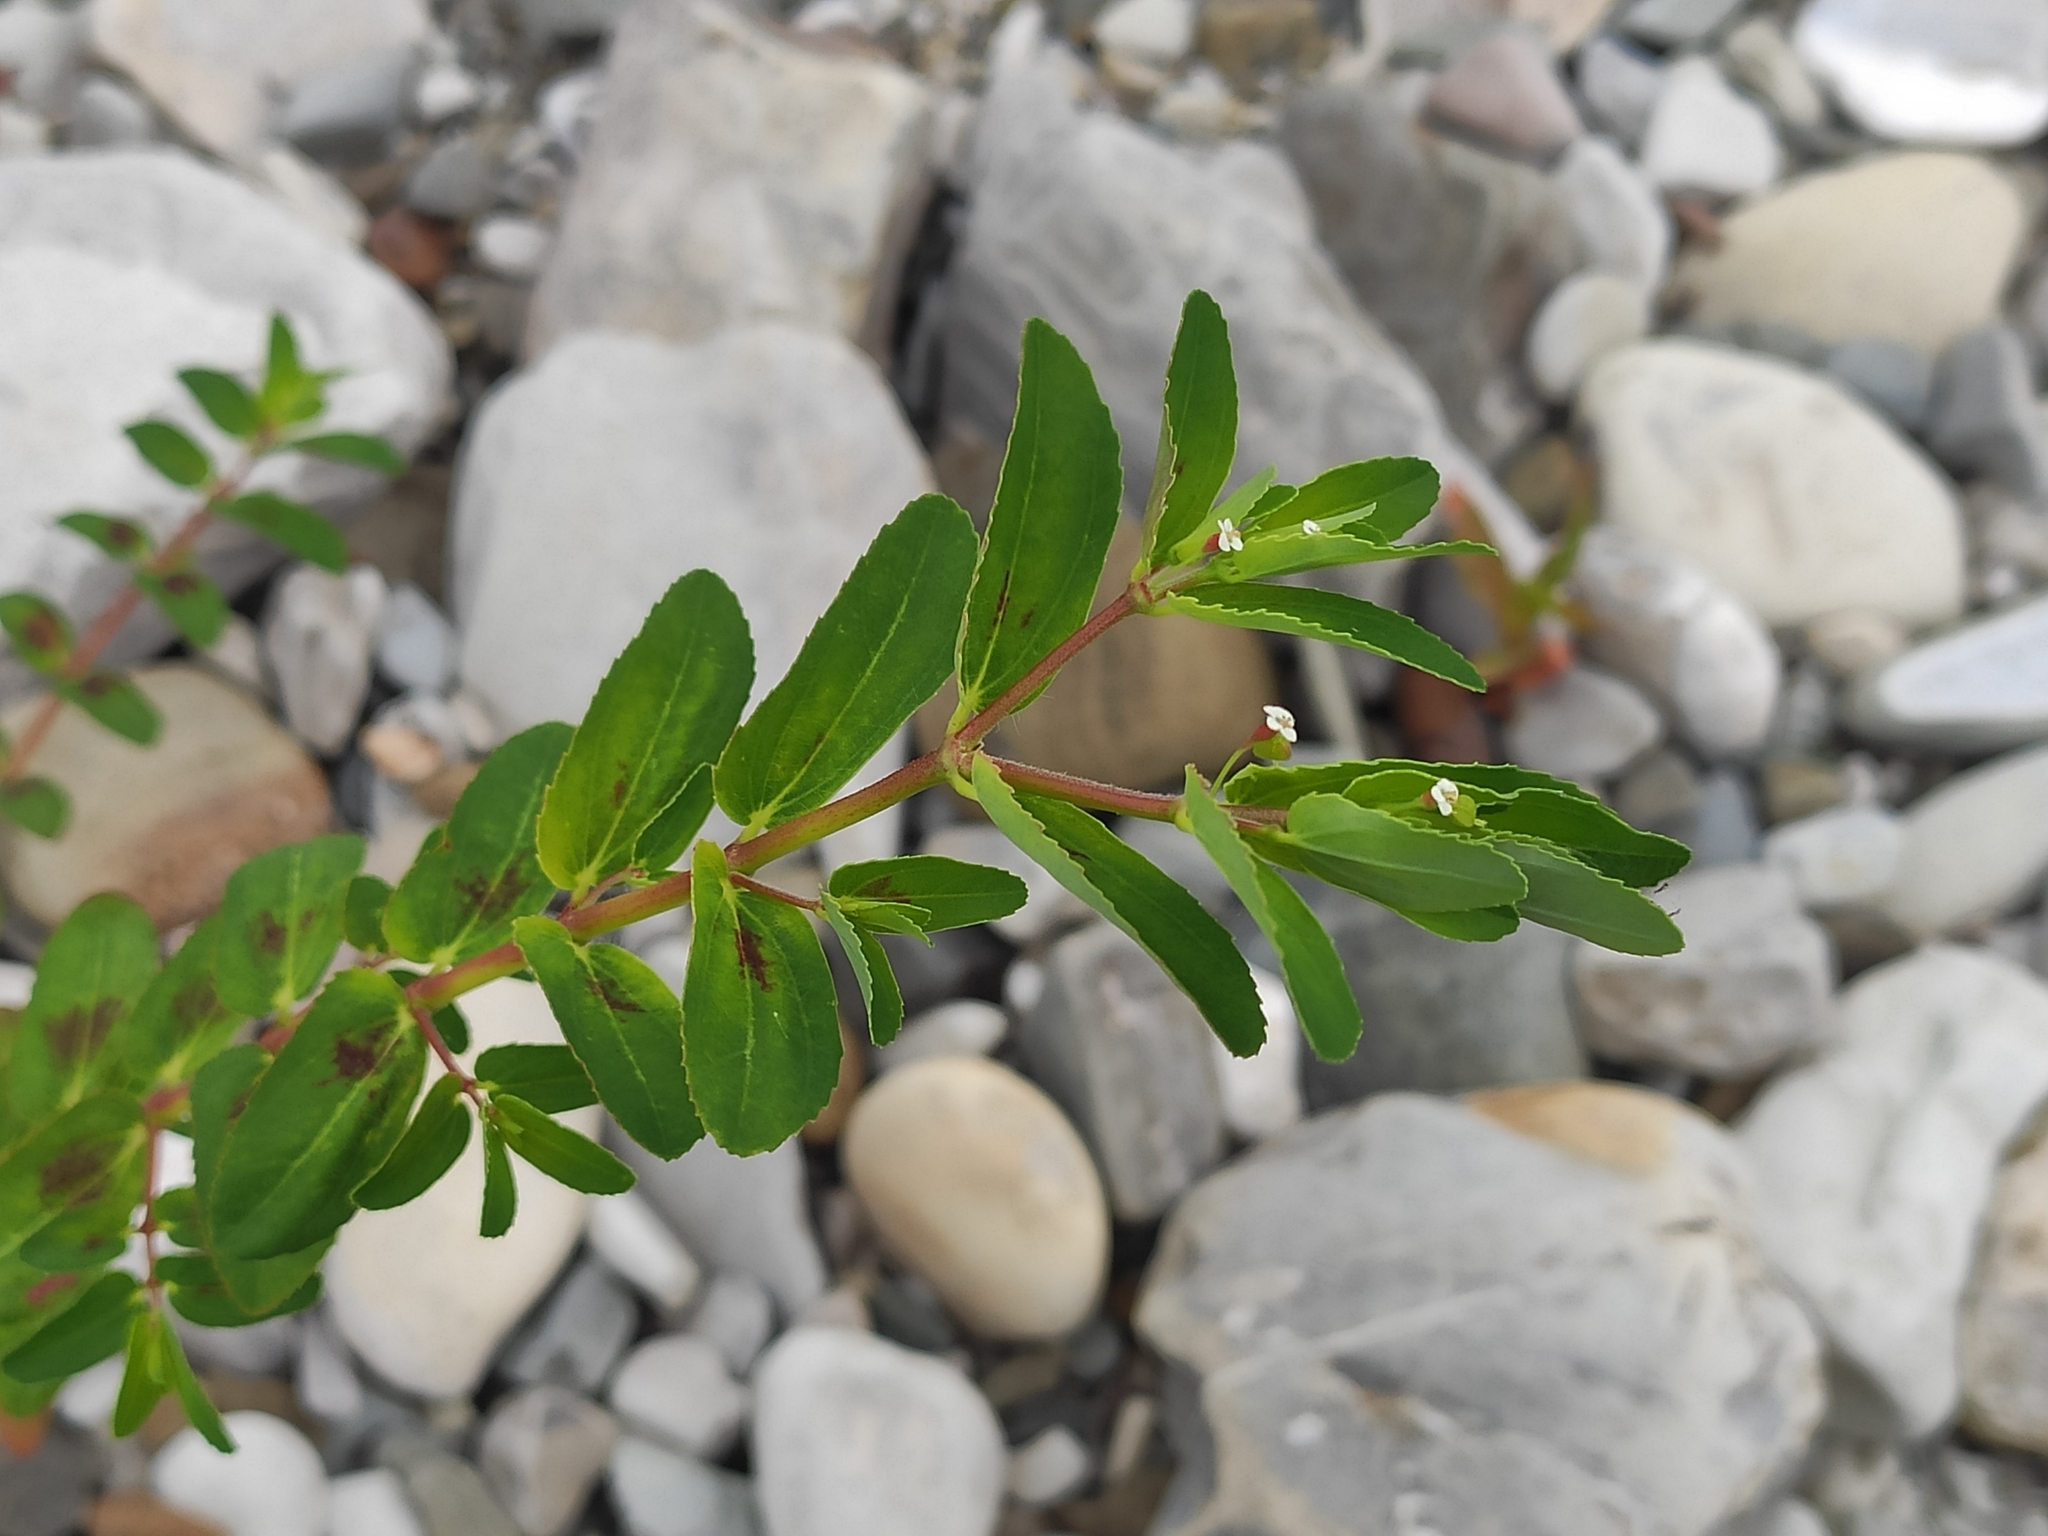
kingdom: Plantae
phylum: Tracheophyta
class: Magnoliopsida
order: Malpighiales
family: Euphorbiaceae
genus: Euphorbia
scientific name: Euphorbia nutans
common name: Eyebane
